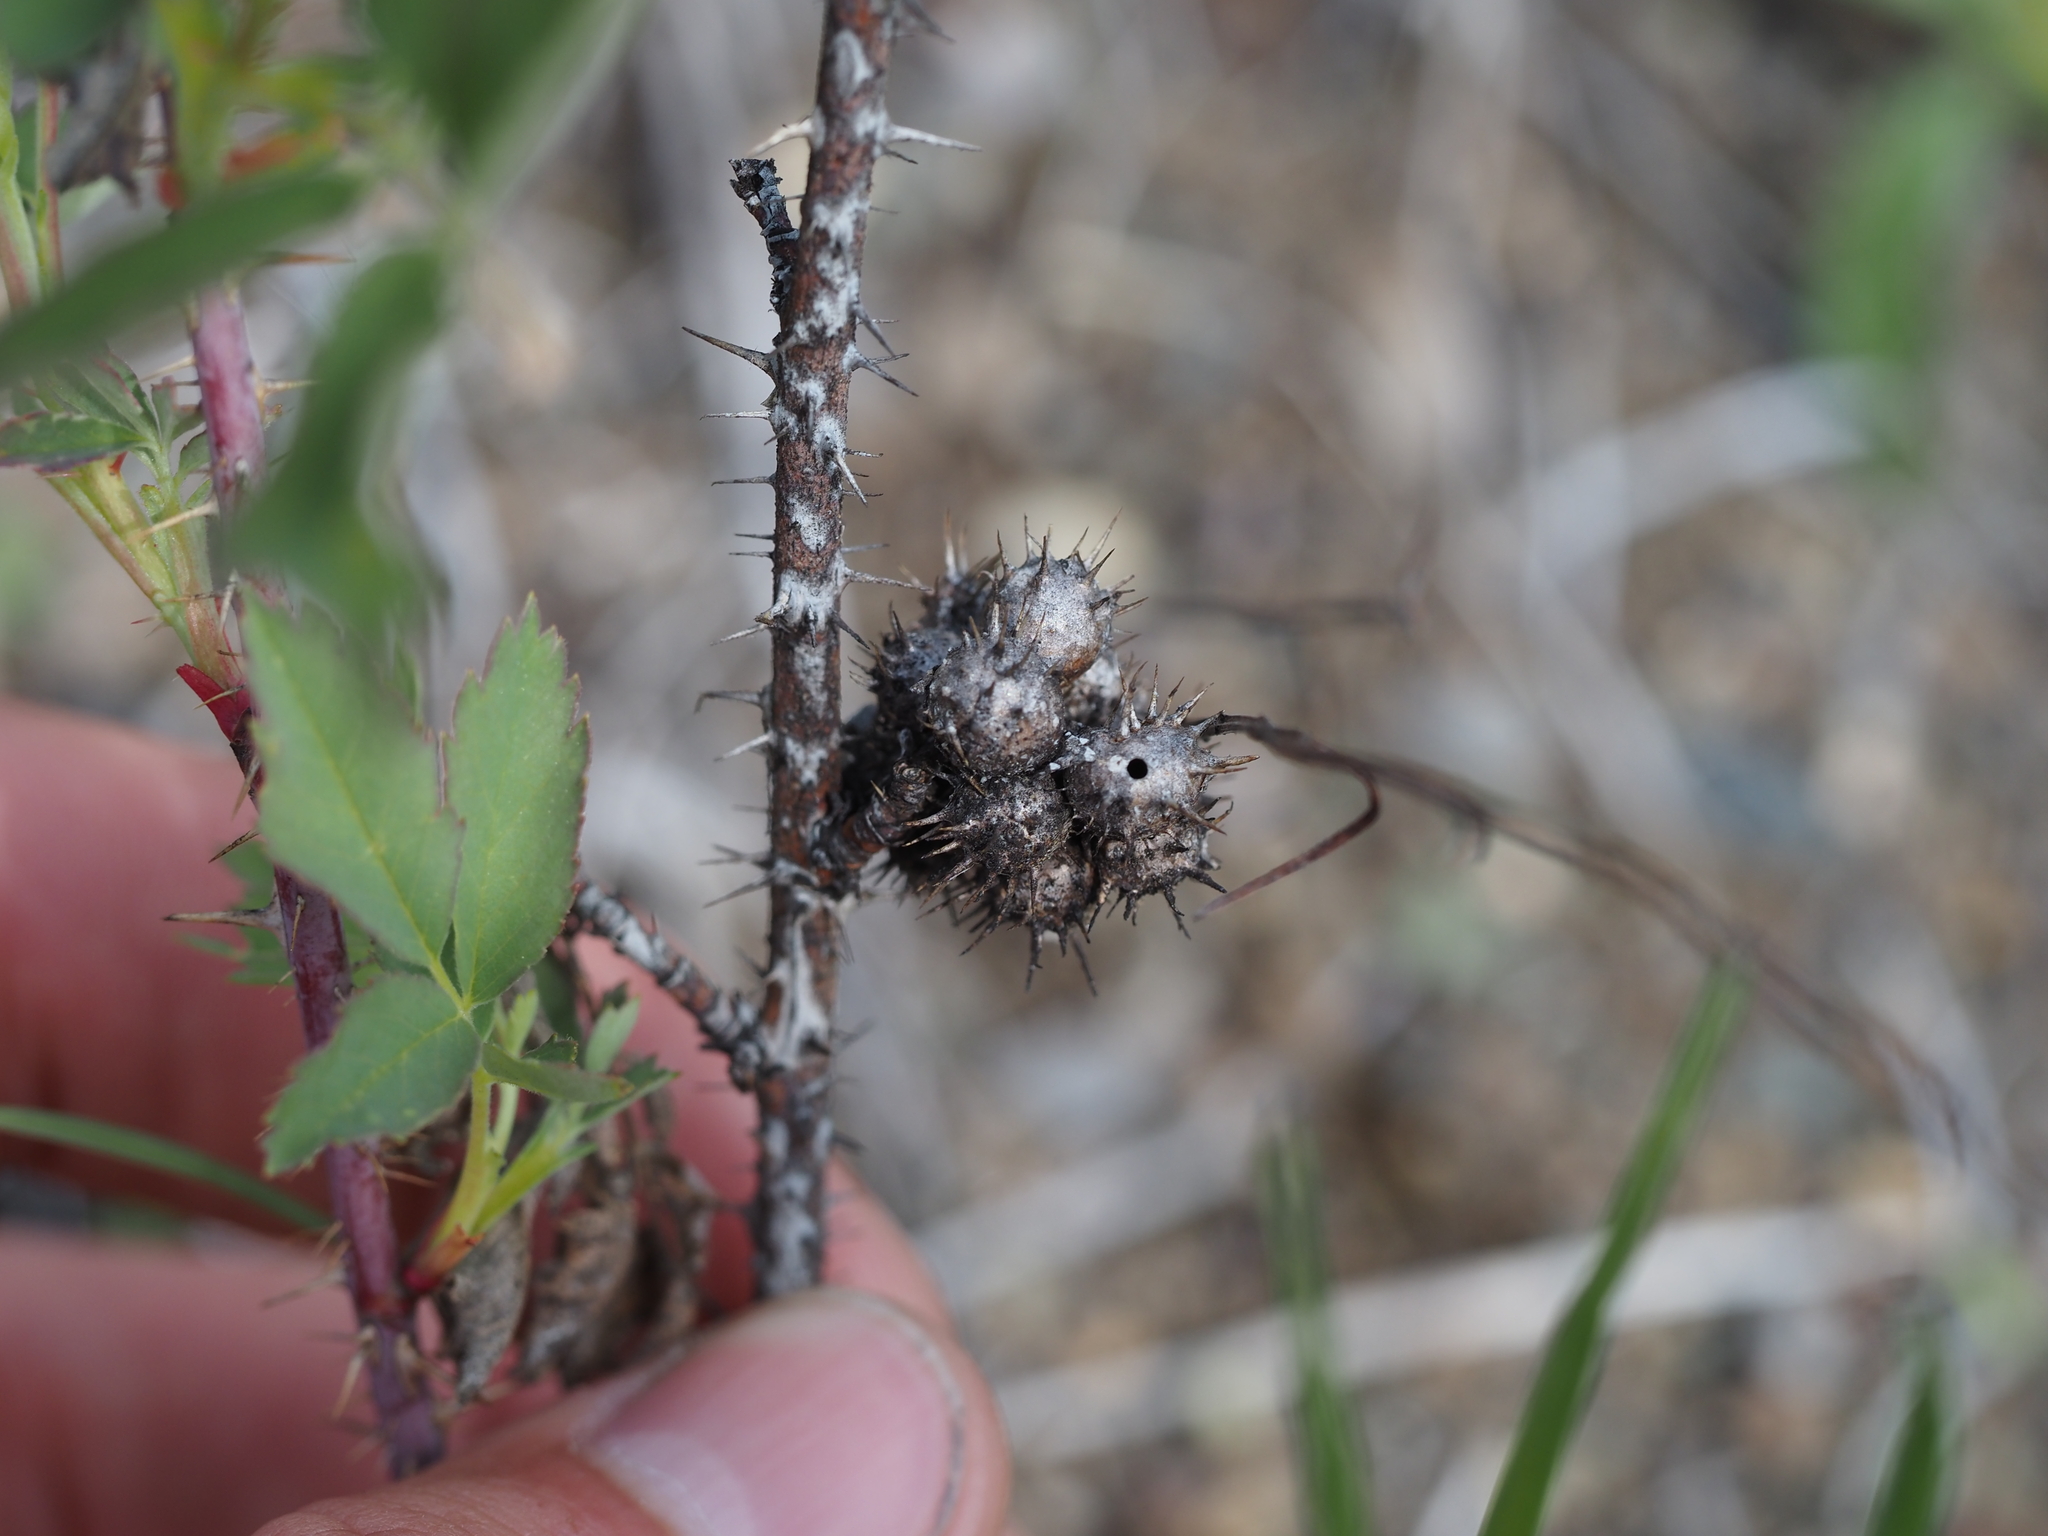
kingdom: Animalia
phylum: Arthropoda
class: Insecta
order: Hymenoptera
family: Cynipidae
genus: Diplolepis
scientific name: Diplolepis polita
